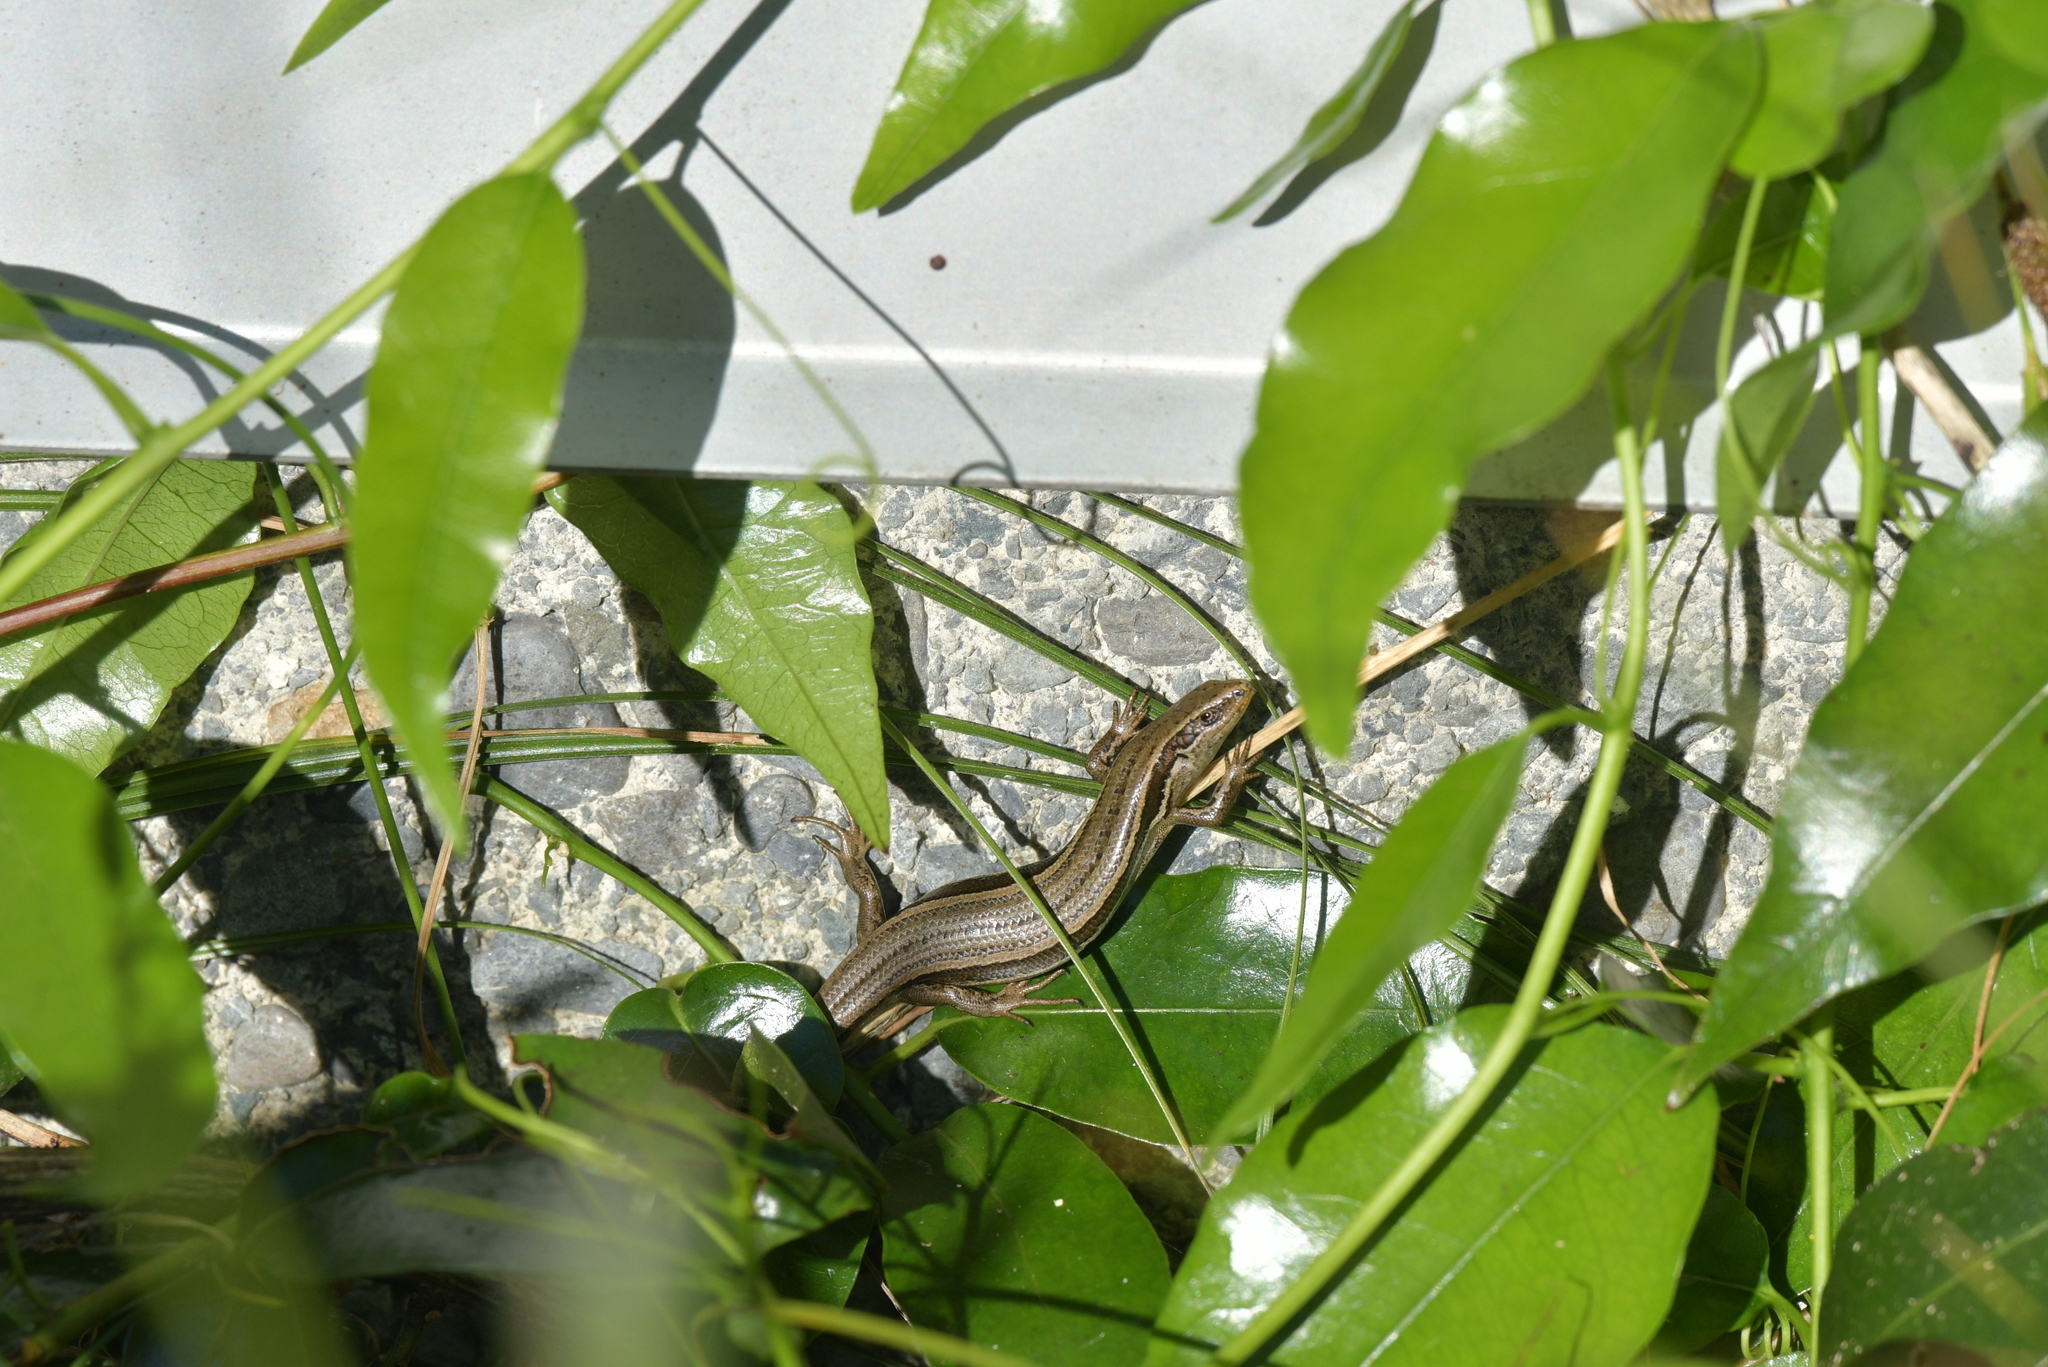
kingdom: Animalia
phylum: Chordata
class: Squamata
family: Scincidae
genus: Oligosoma
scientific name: Oligosoma polychroma
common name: Common new zealand skink
